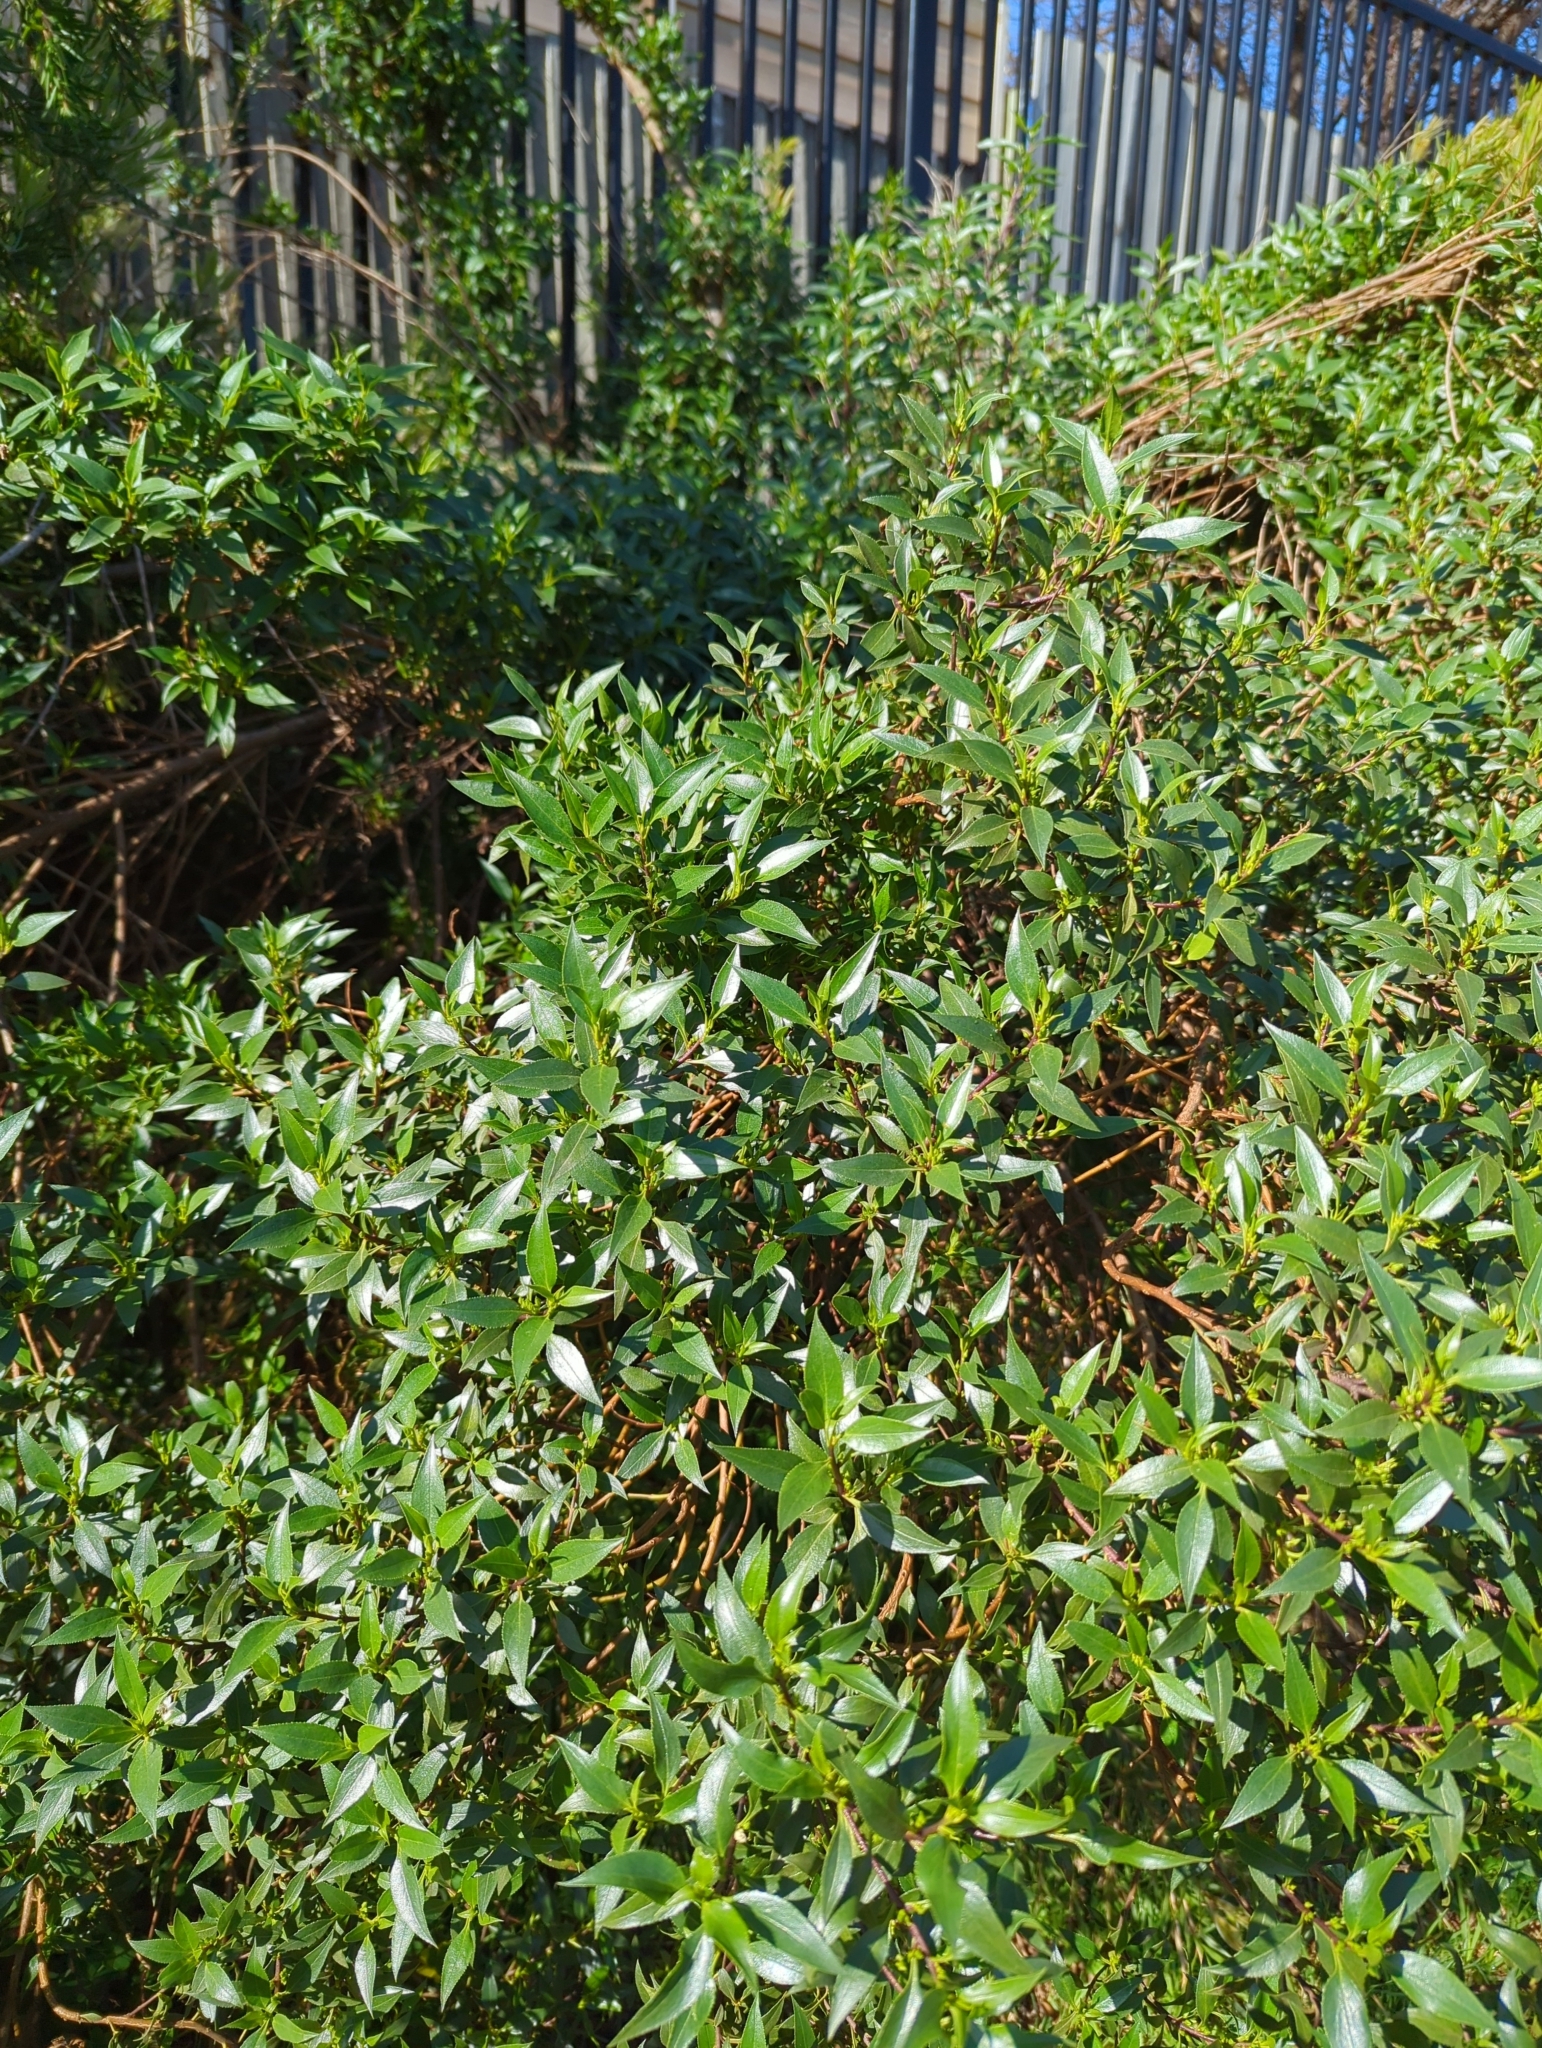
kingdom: Plantae
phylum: Tracheophyta
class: Magnoliopsida
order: Lamiales
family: Scrophulariaceae
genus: Myoporum
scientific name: Myoporum insulare
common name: Common boobialla
